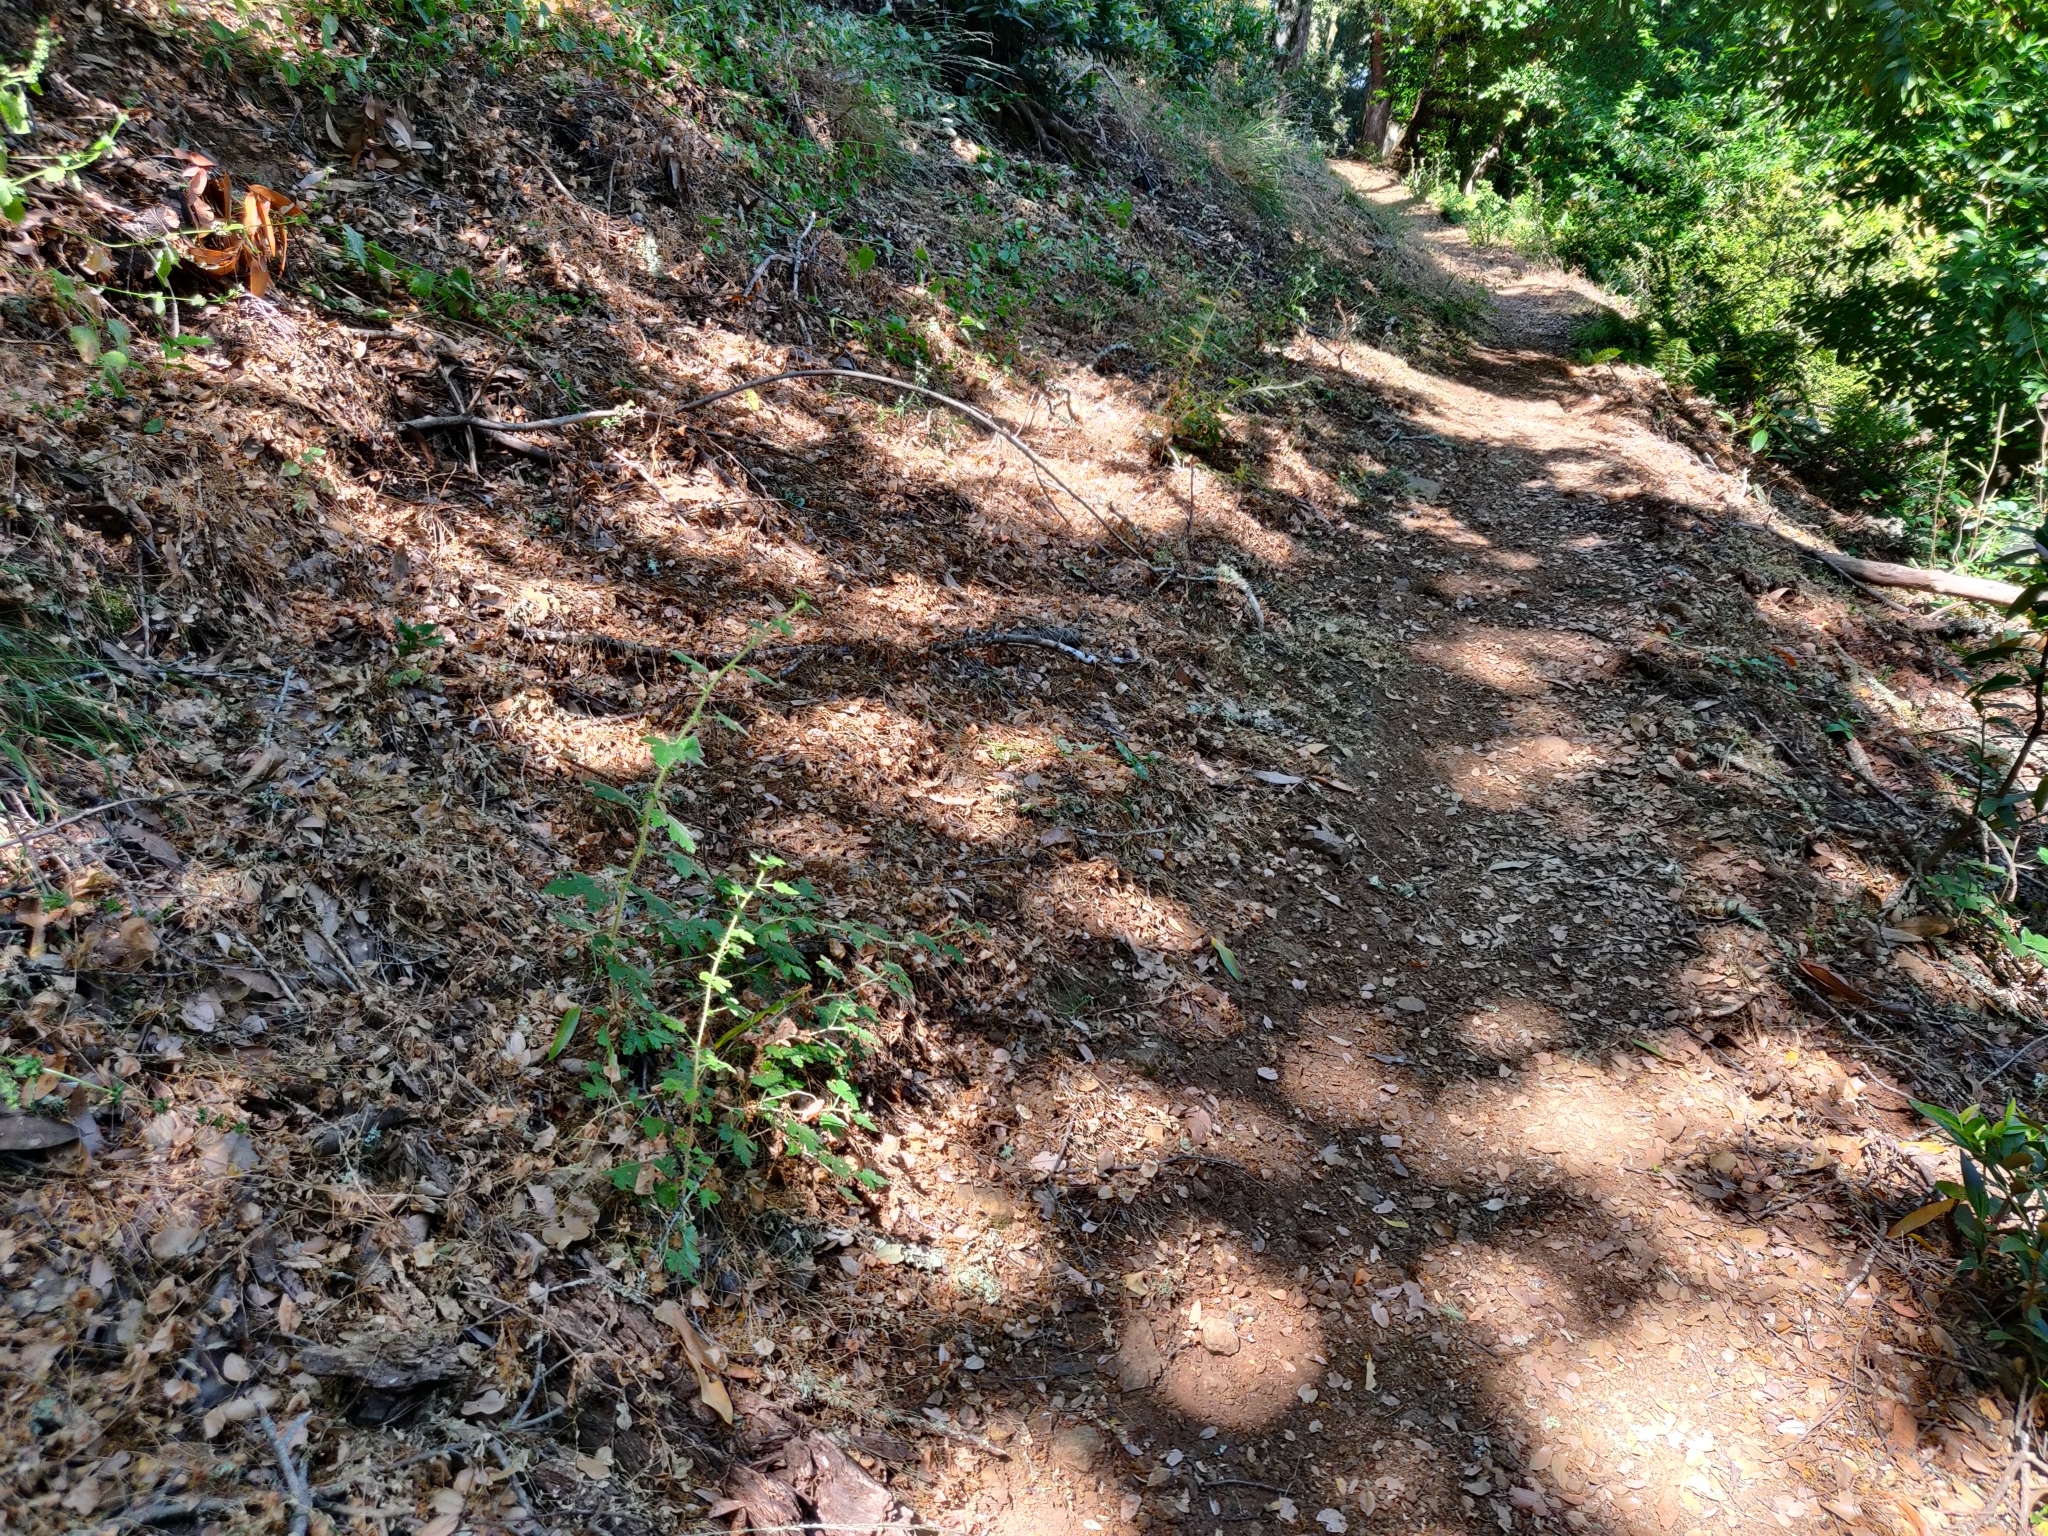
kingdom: Plantae
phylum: Tracheophyta
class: Magnoliopsida
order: Saxifragales
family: Grossulariaceae
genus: Ribes
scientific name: Ribes menziesii
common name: Canyon gooseberry
